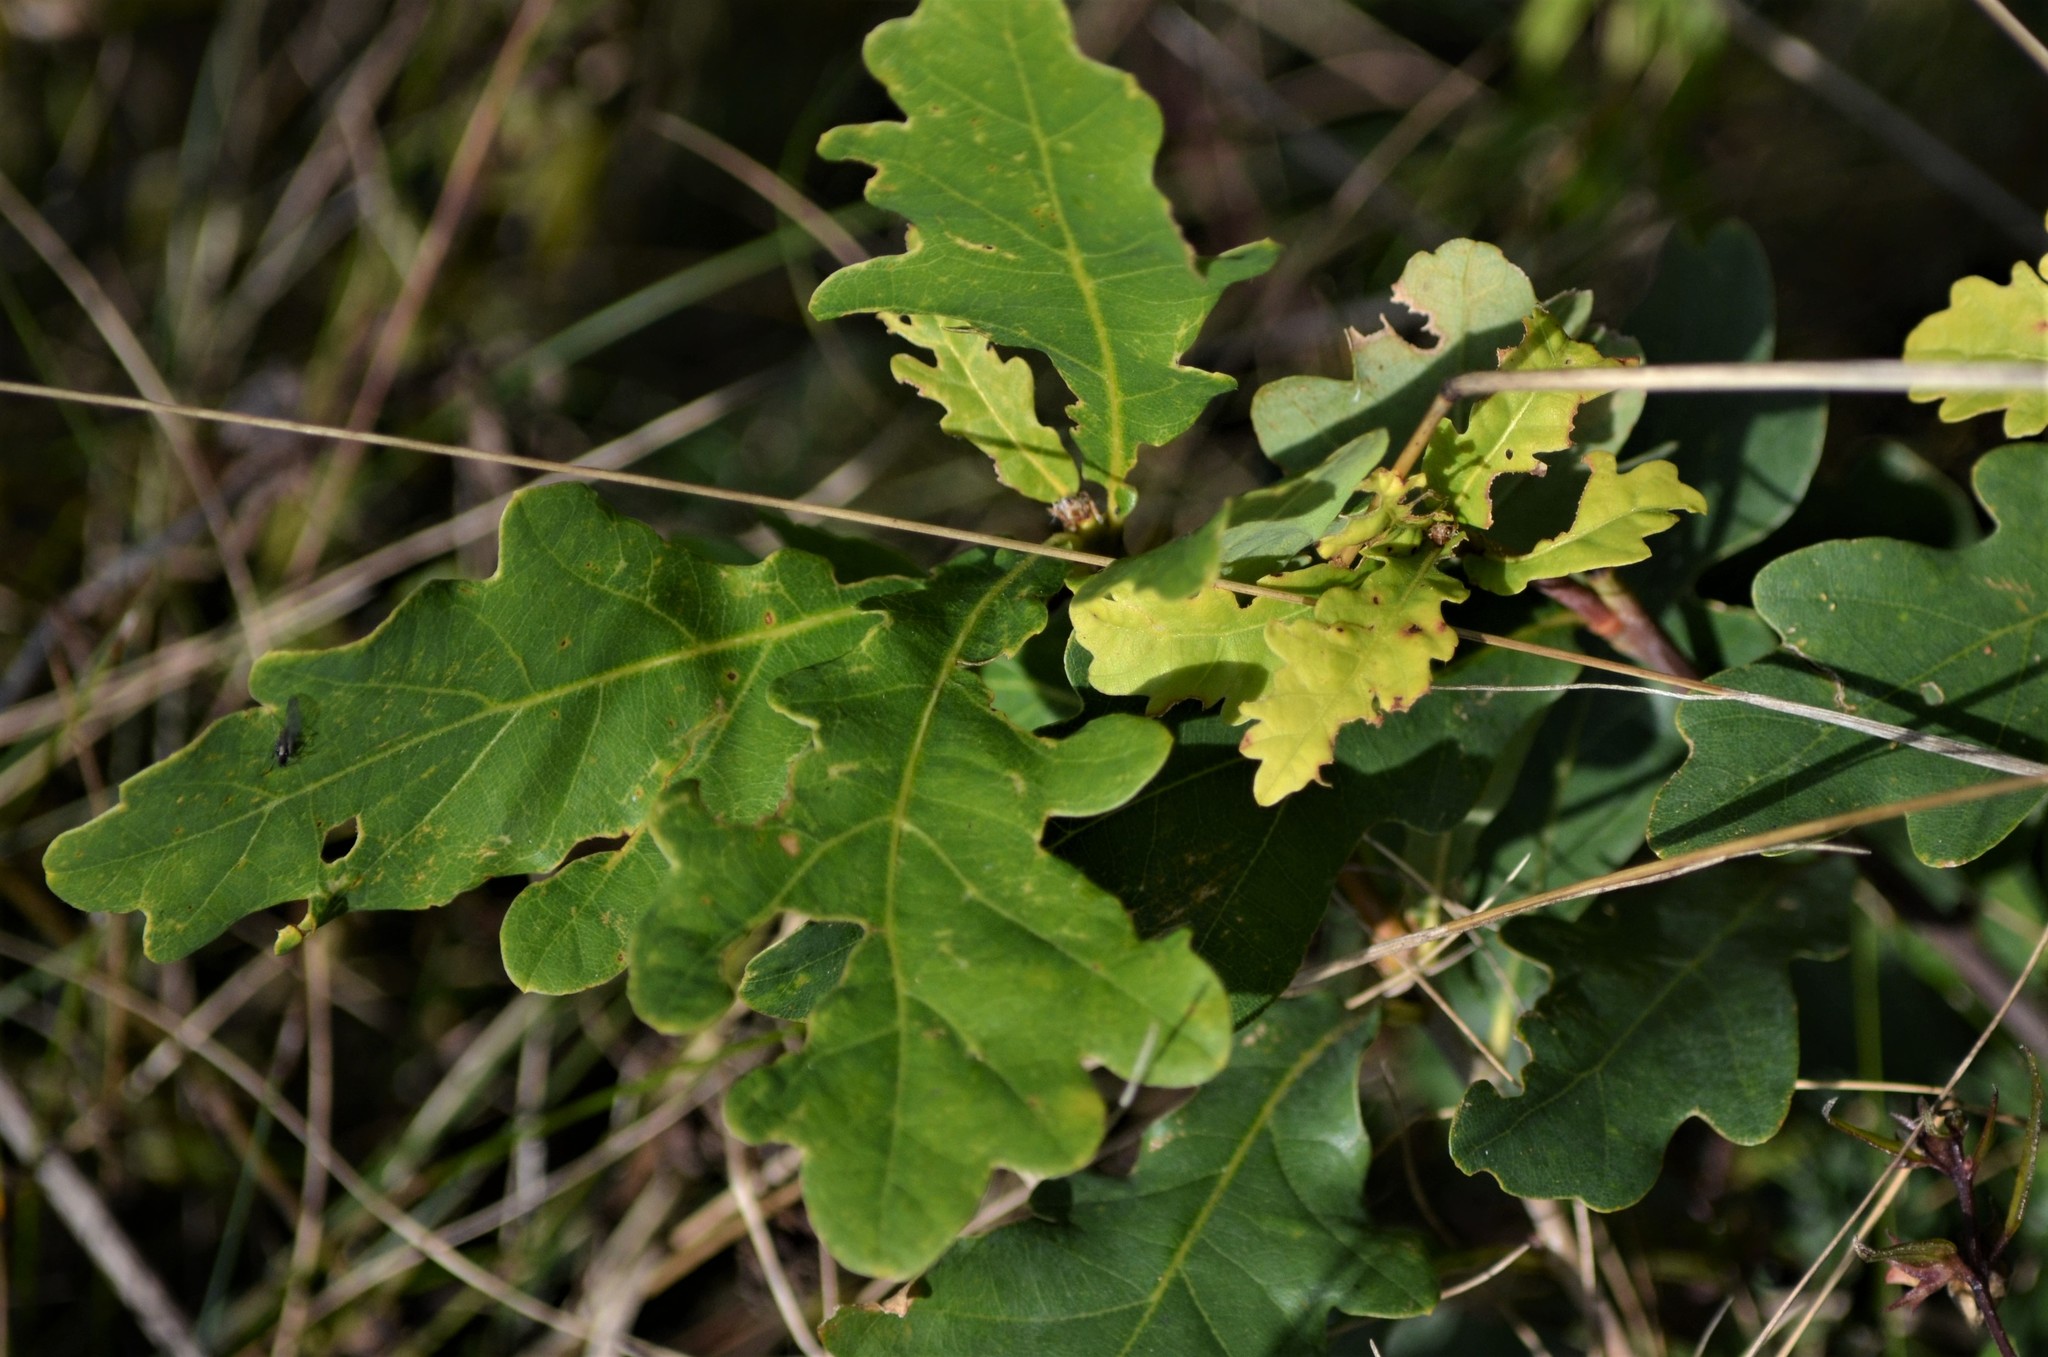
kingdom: Plantae
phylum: Tracheophyta
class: Magnoliopsida
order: Fagales
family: Fagaceae
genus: Quercus
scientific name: Quercus robur
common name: Pedunculate oak
